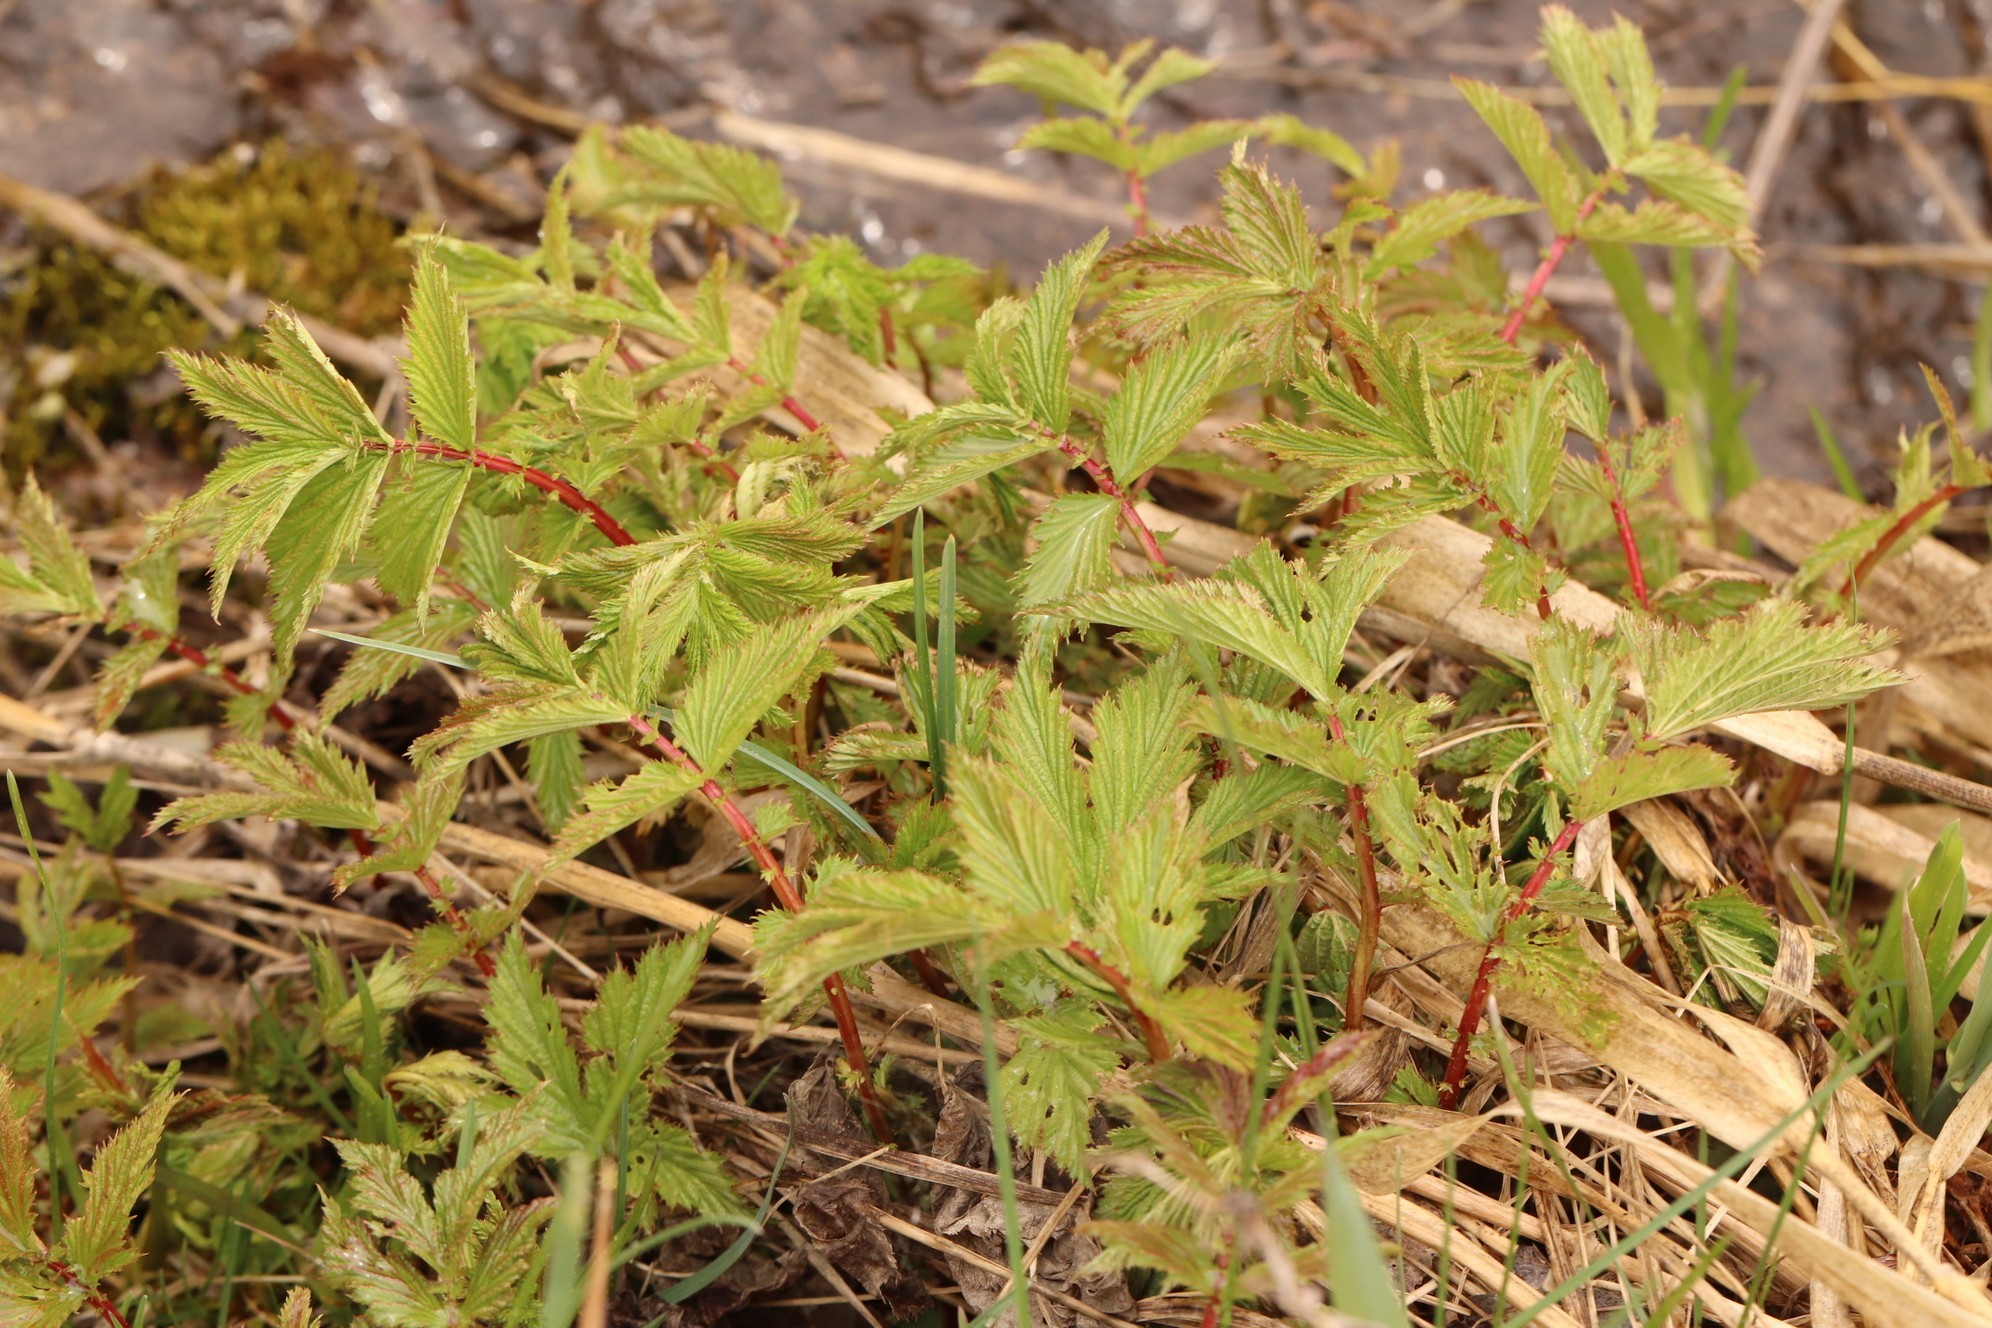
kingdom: Plantae
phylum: Tracheophyta
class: Magnoliopsida
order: Rosales
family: Rosaceae
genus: Filipendula
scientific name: Filipendula ulmaria
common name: Meadowsweet
